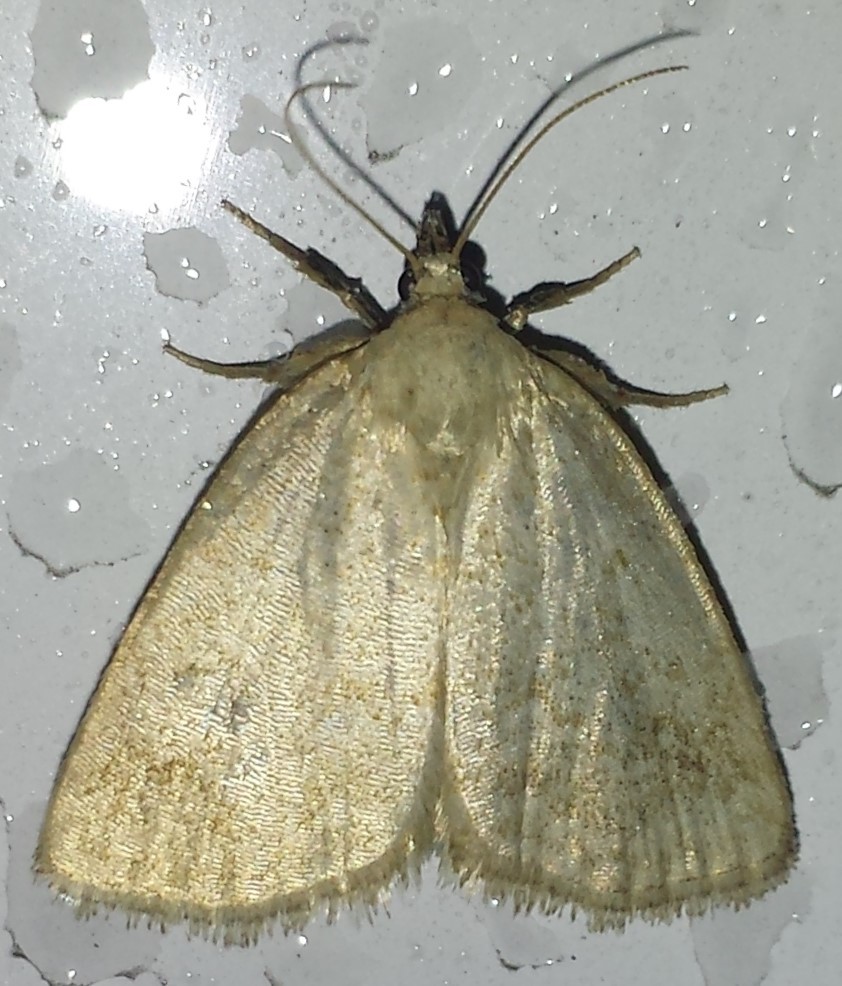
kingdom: Animalia
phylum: Arthropoda
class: Insecta
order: Lepidoptera
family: Noctuidae
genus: Protodeltote
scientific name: Protodeltote albidula
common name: Pale glyph
